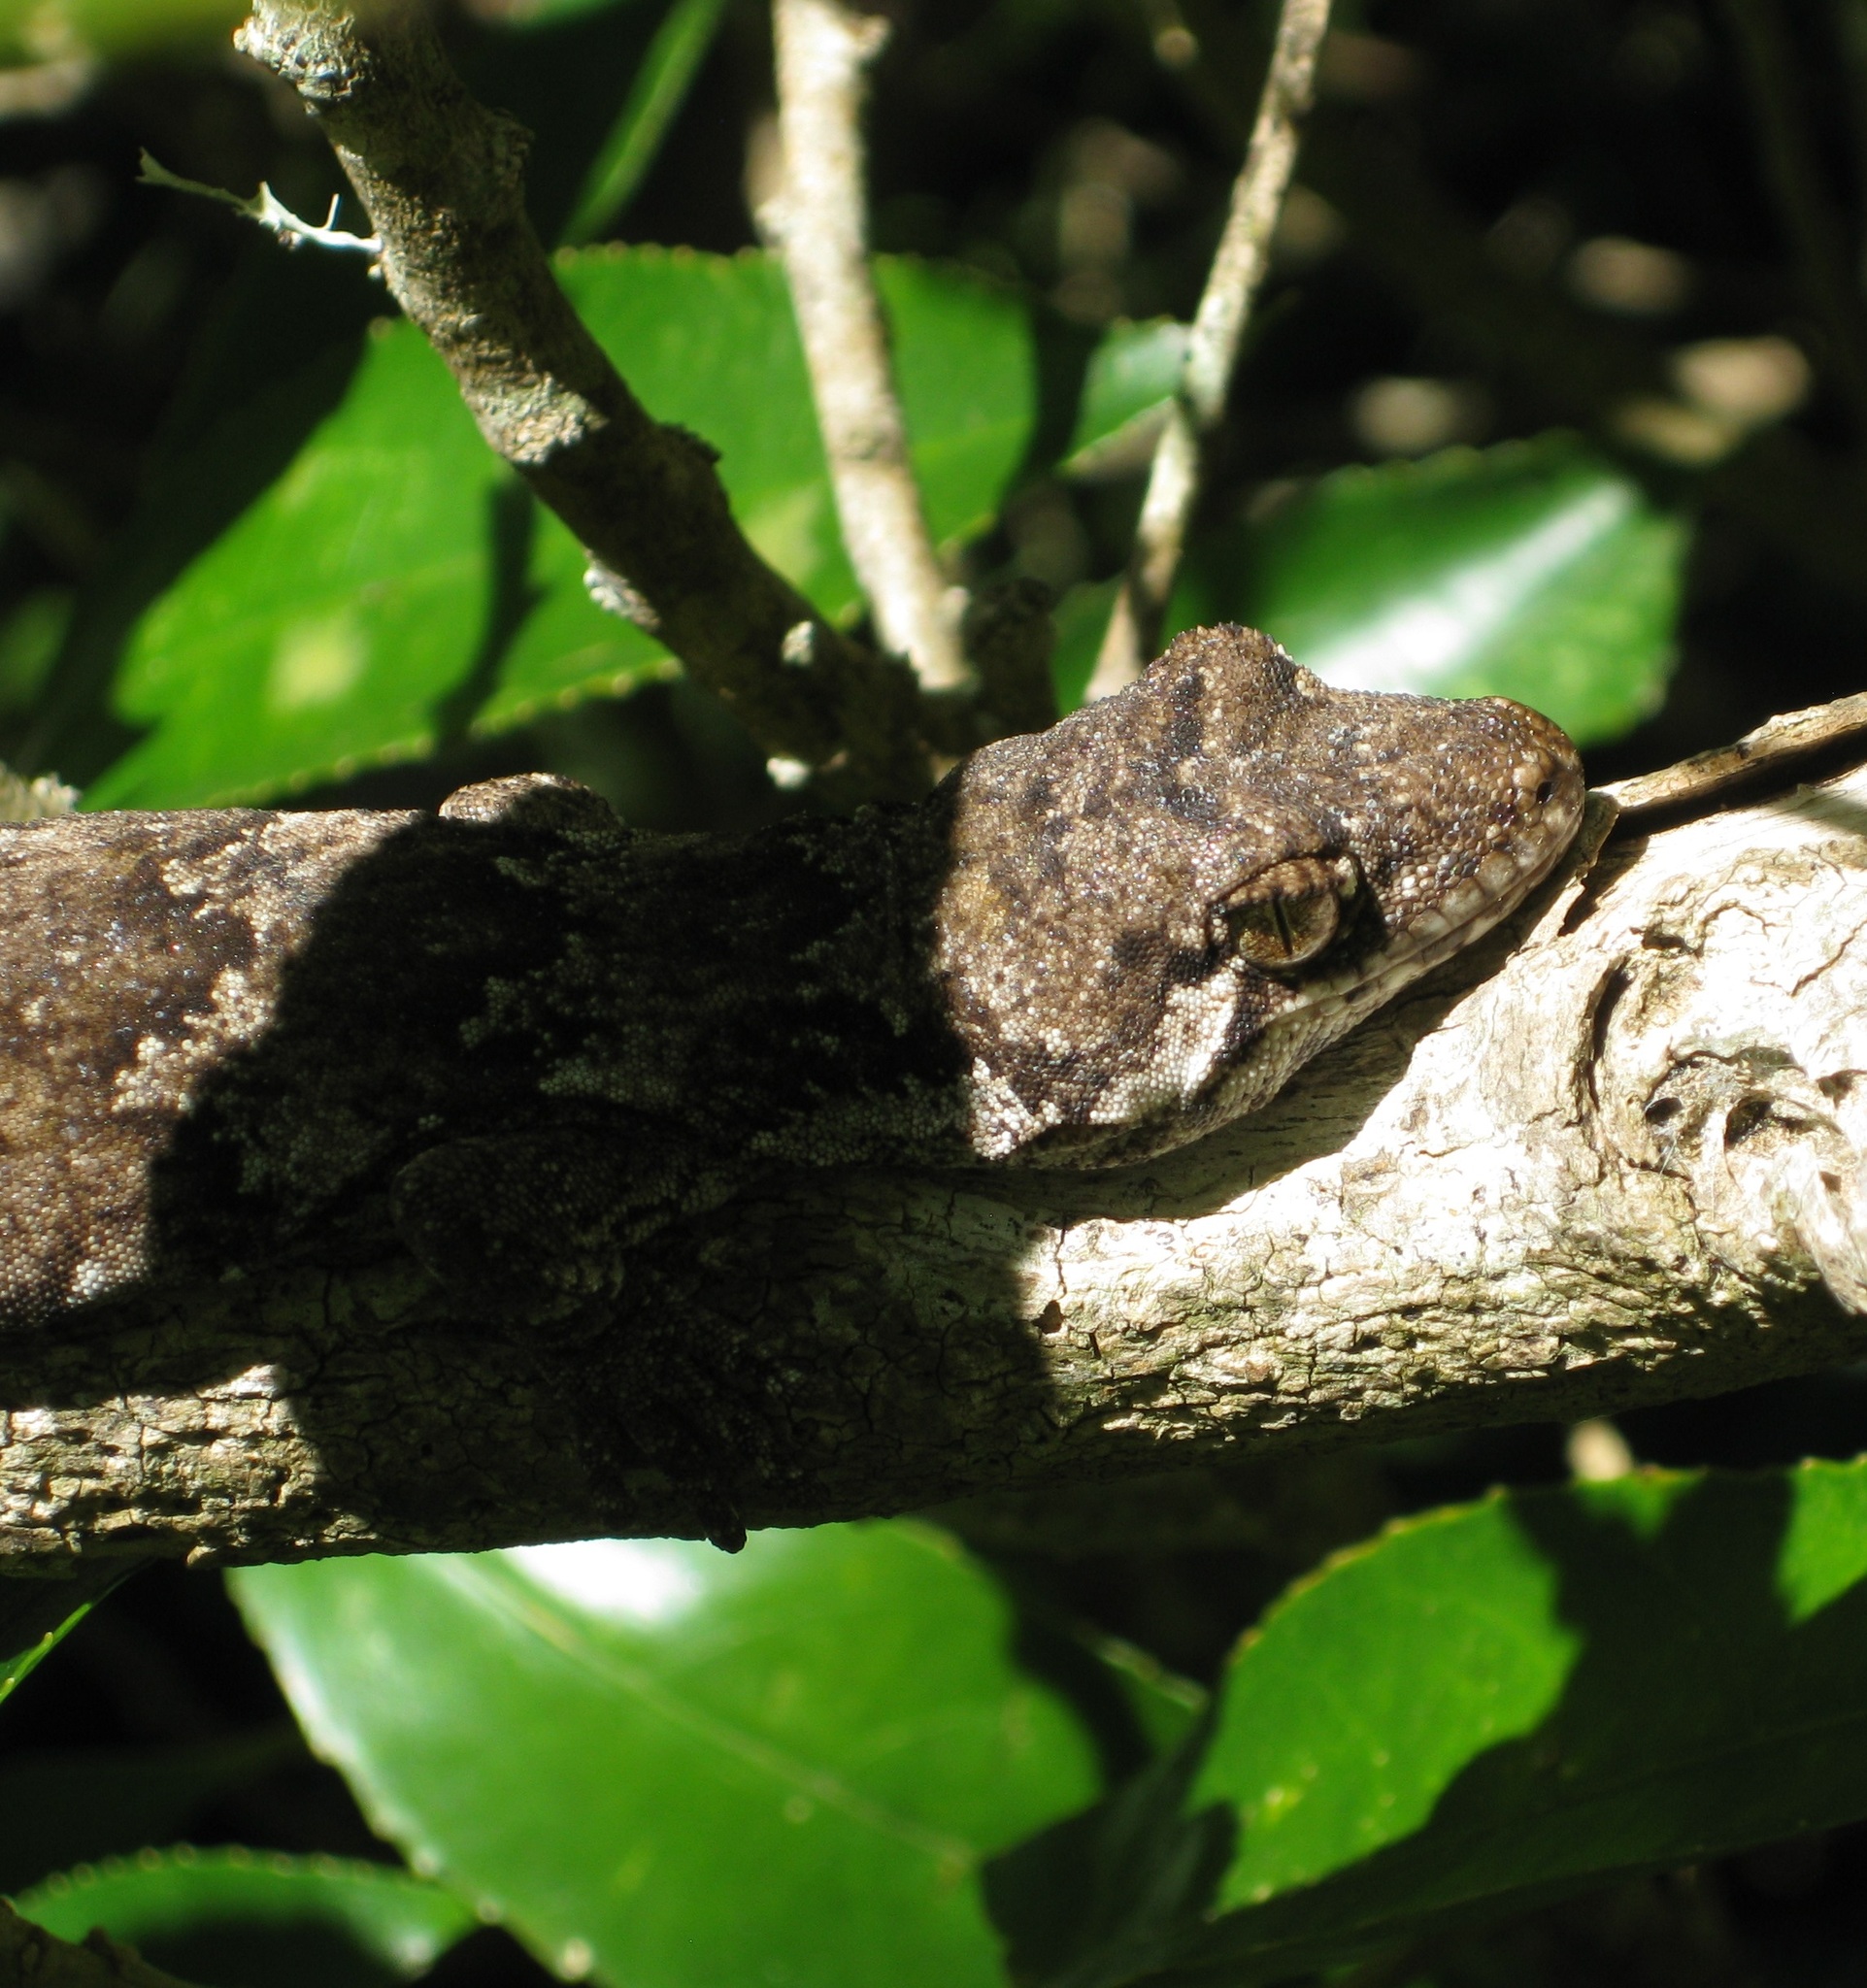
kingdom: Animalia
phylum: Chordata
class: Squamata
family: Diplodactylidae
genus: Mokopirirakau
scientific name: Mokopirirakau
